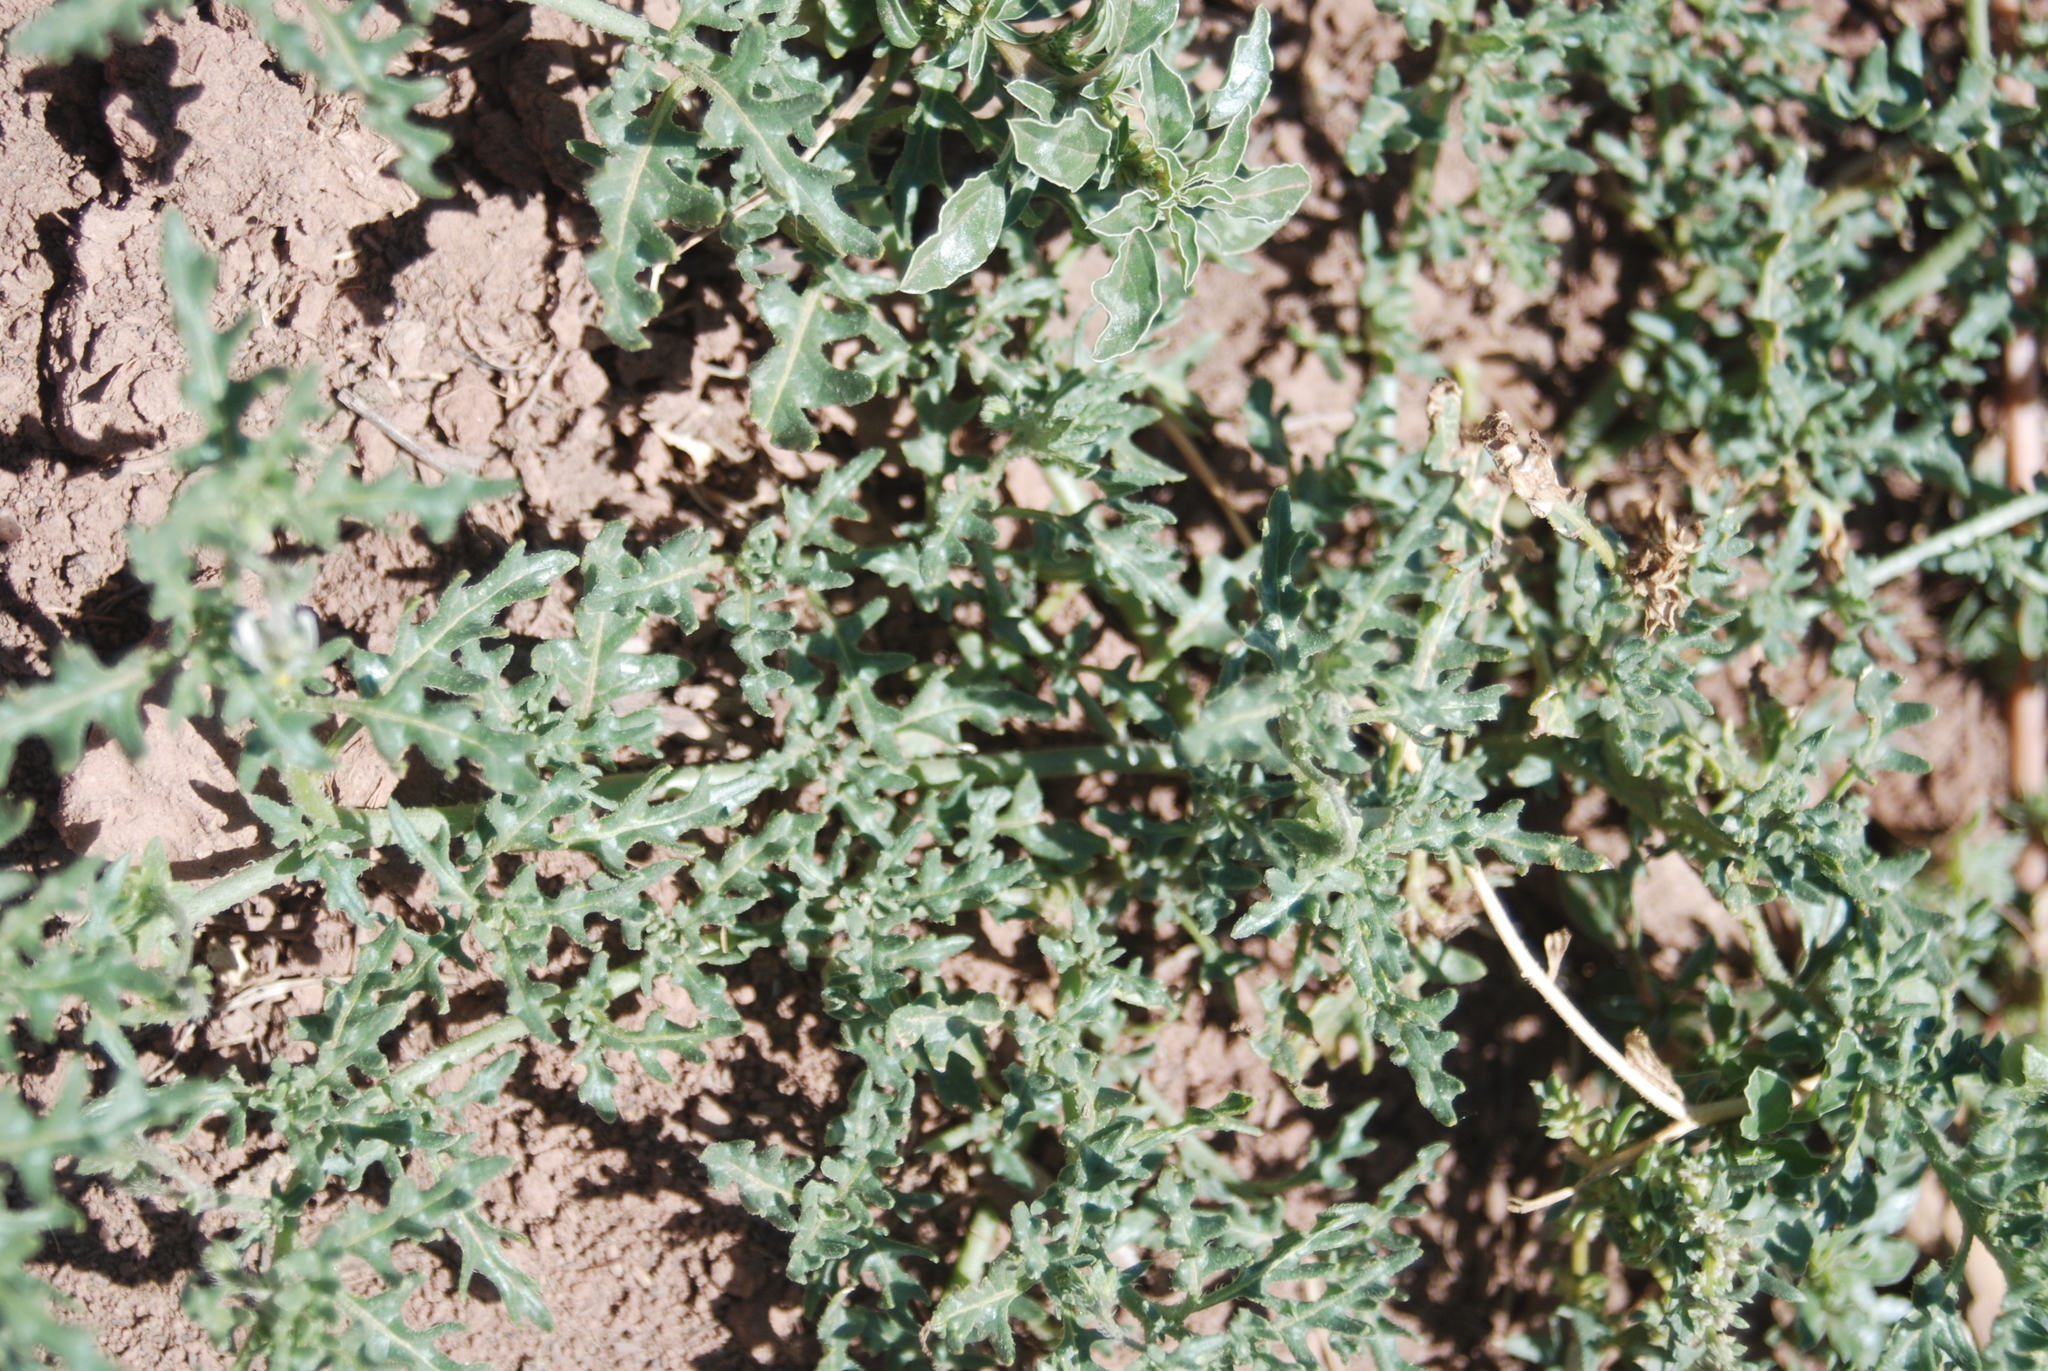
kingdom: Plantae
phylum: Tracheophyta
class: Magnoliopsida
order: Solanales
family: Solanaceae
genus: Solanum
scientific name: Solanum triflorum
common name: Small nightshade
